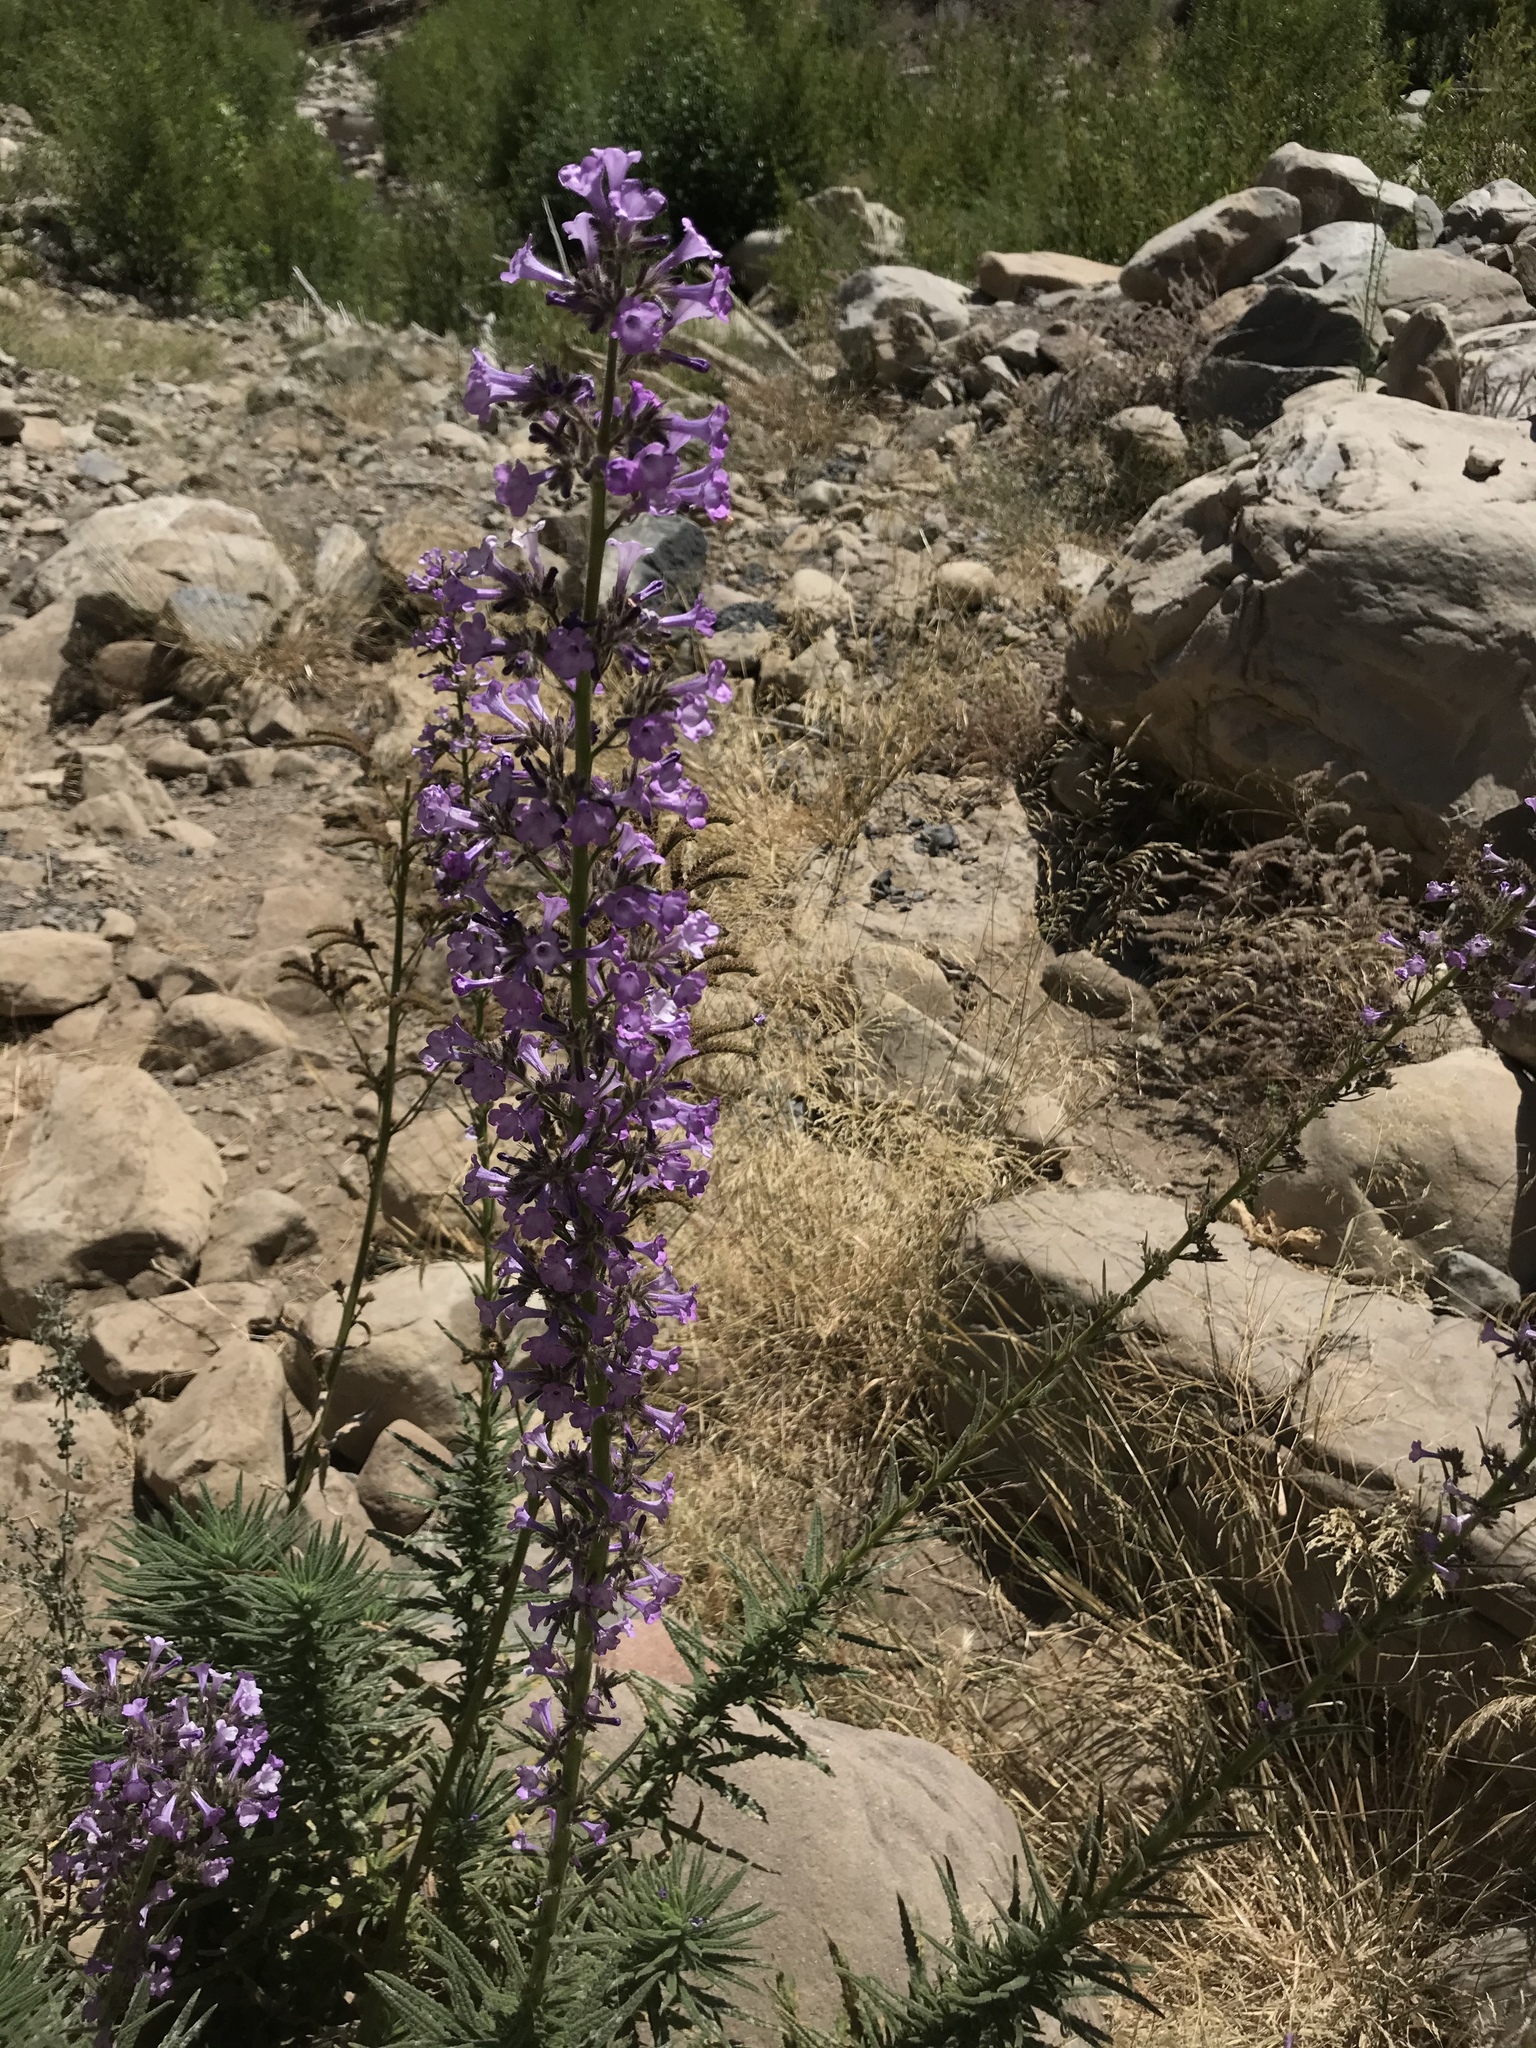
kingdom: Plantae
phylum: Tracheophyta
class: Magnoliopsida
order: Boraginales
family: Namaceae
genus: Turricula
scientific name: Turricula parryi
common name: Poodle-dog-bush
